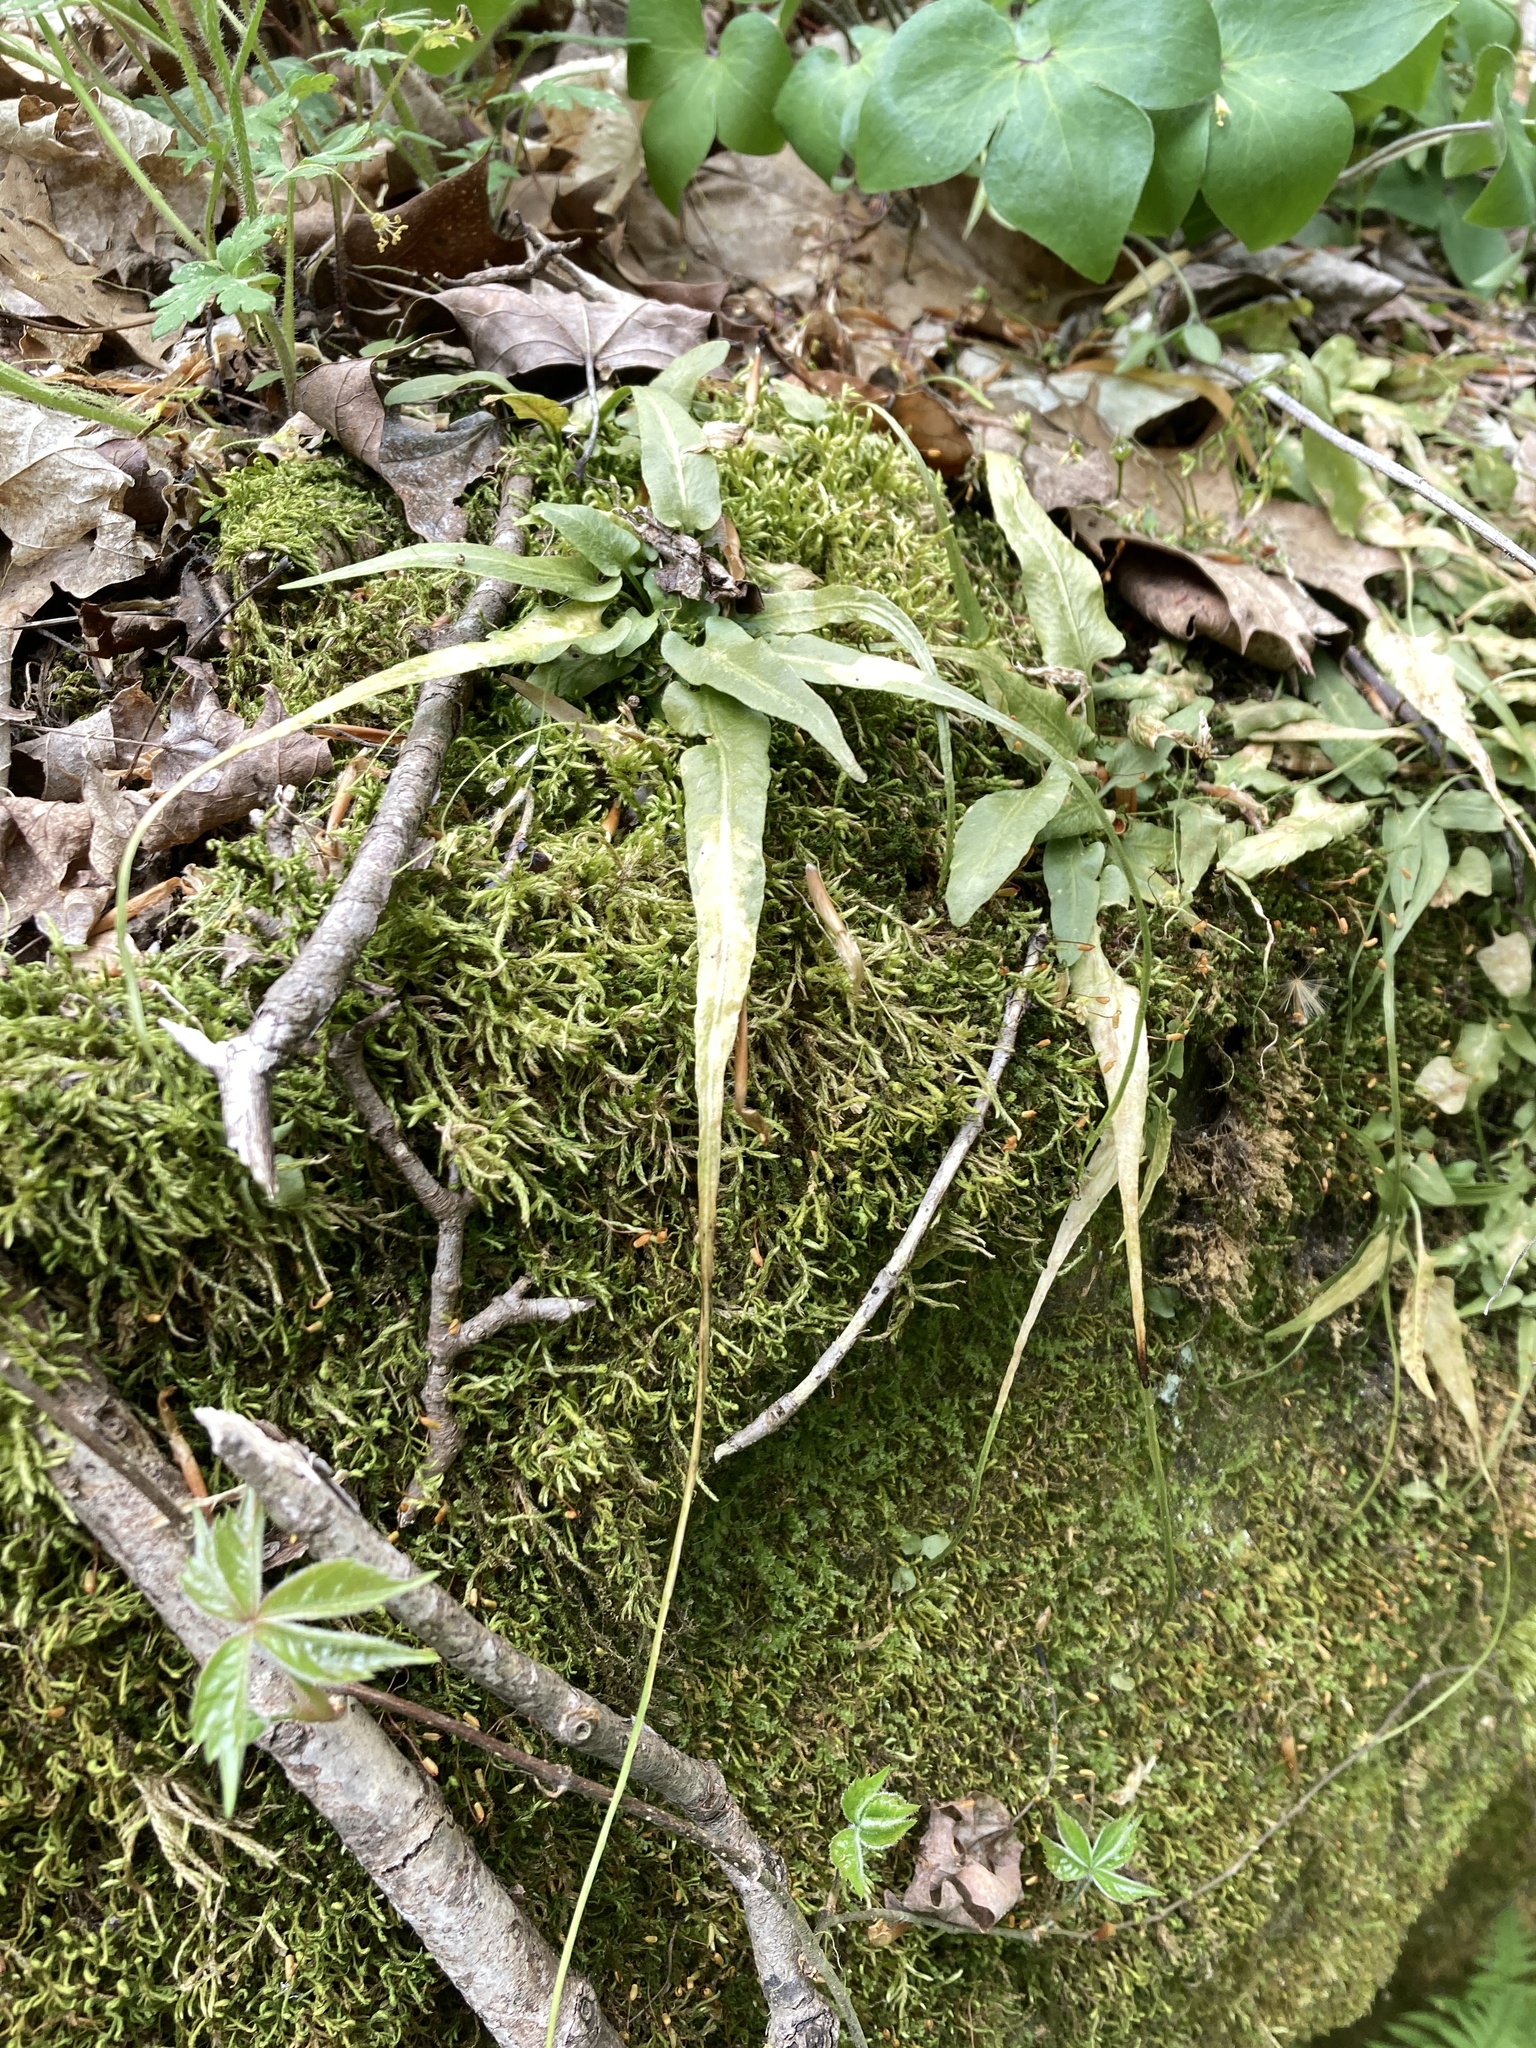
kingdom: Plantae
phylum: Tracheophyta
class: Polypodiopsida
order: Polypodiales
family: Aspleniaceae
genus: Asplenium
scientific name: Asplenium rhizophyllum
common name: Walking fern
